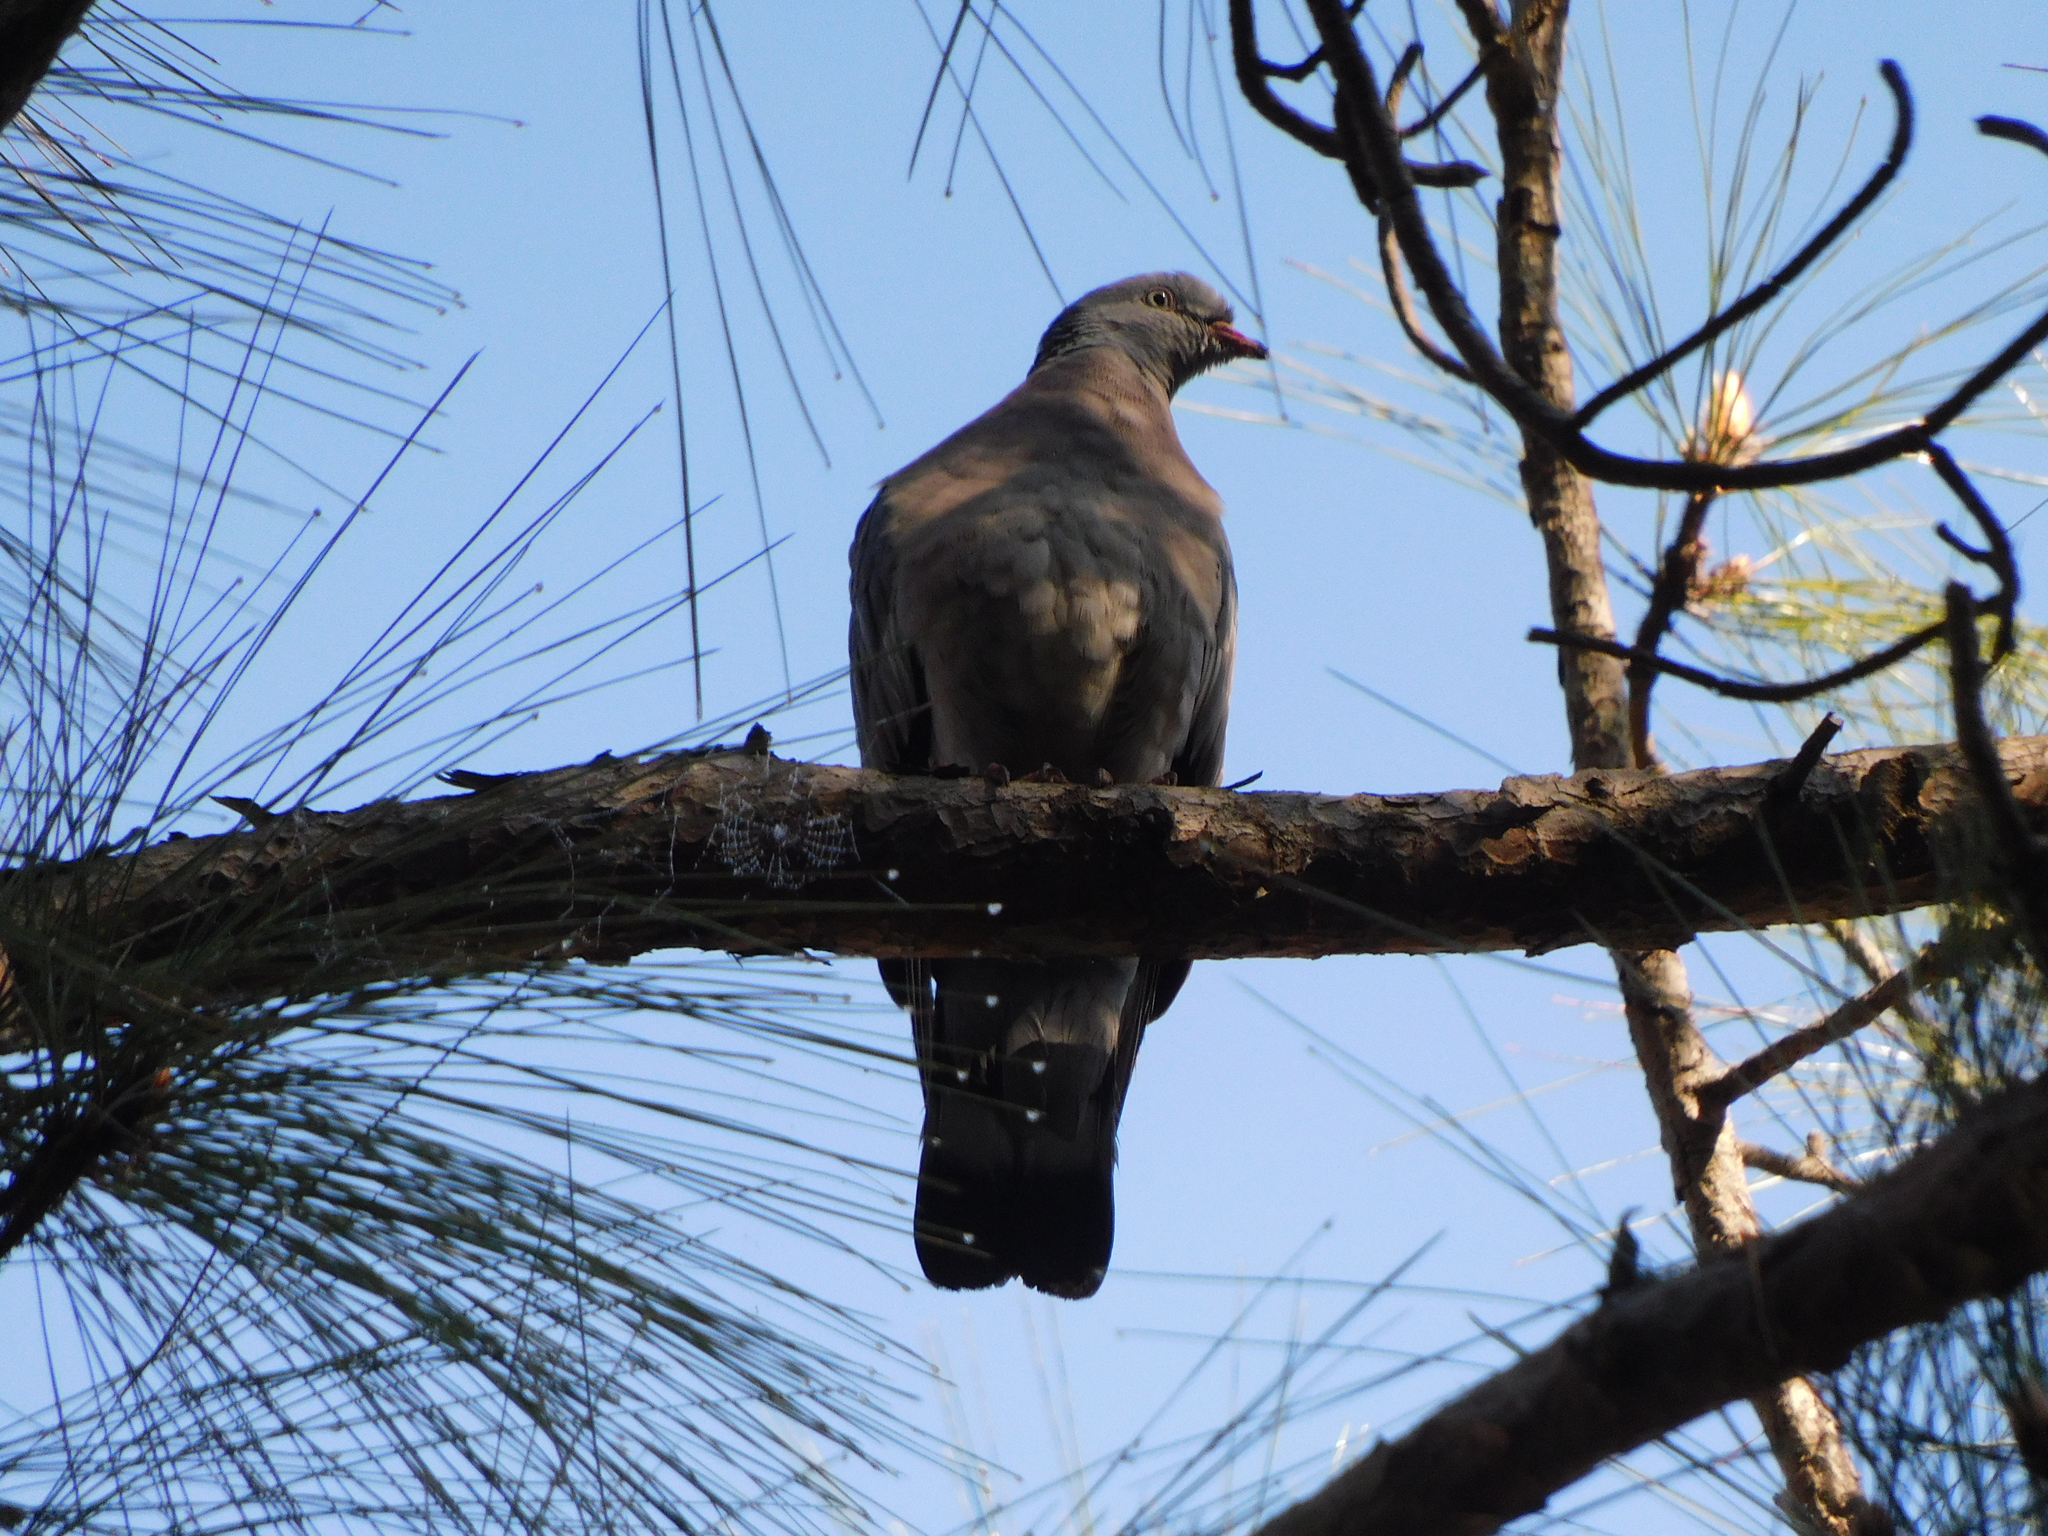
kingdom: Animalia
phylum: Chordata
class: Aves
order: Columbiformes
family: Columbidae
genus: Columba
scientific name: Columba palumbus
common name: Common wood pigeon
